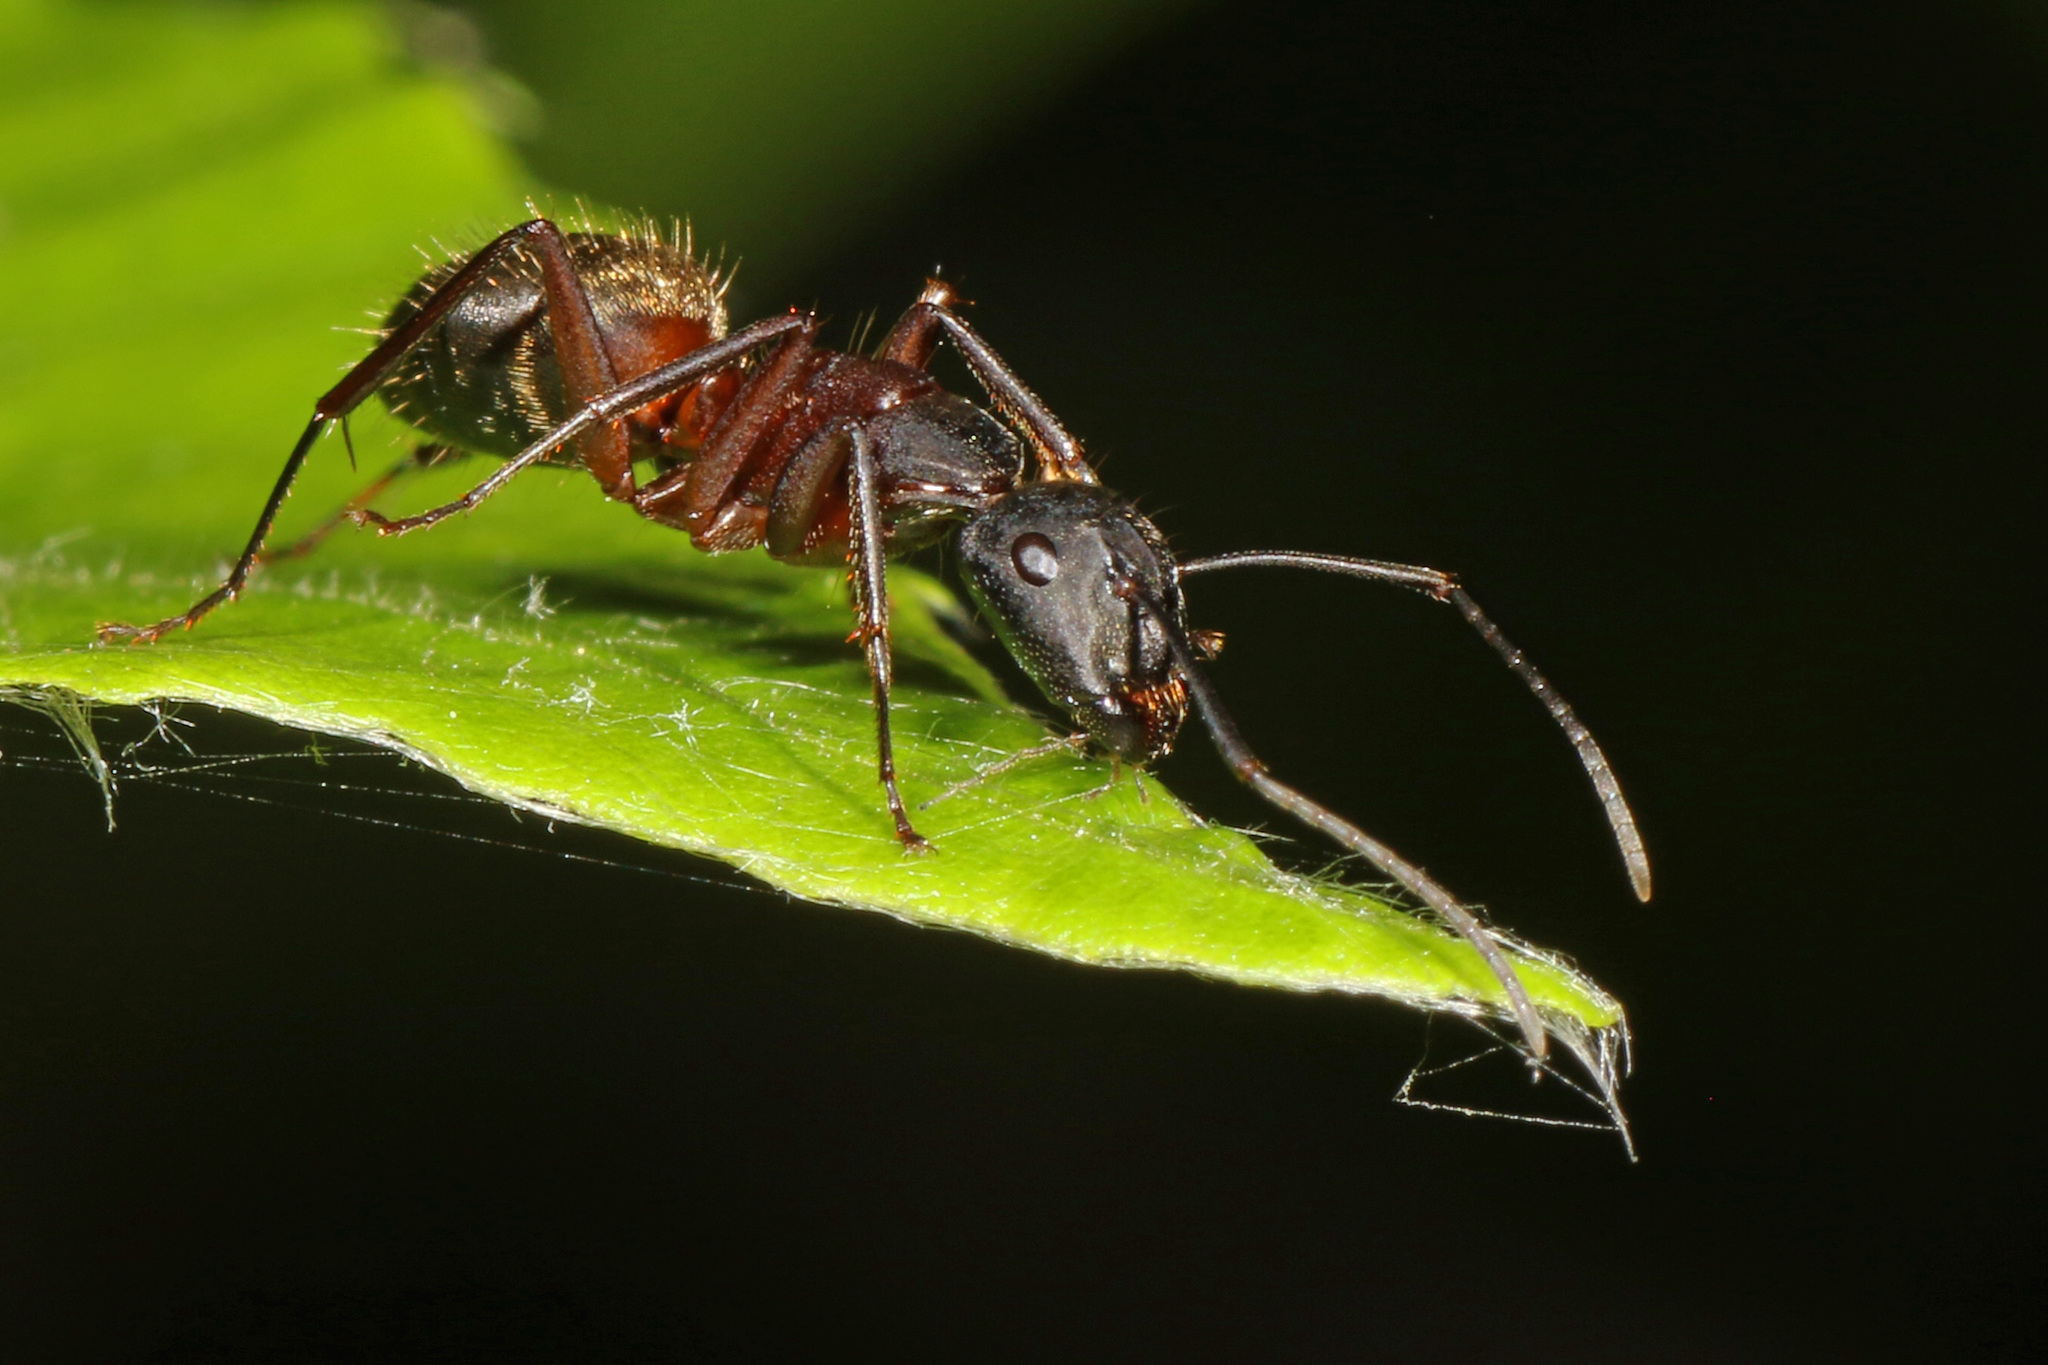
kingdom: Animalia
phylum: Arthropoda
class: Insecta
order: Hymenoptera
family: Formicidae
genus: Camponotus
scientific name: Camponotus chromaiodes
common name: Red carpenter ant
